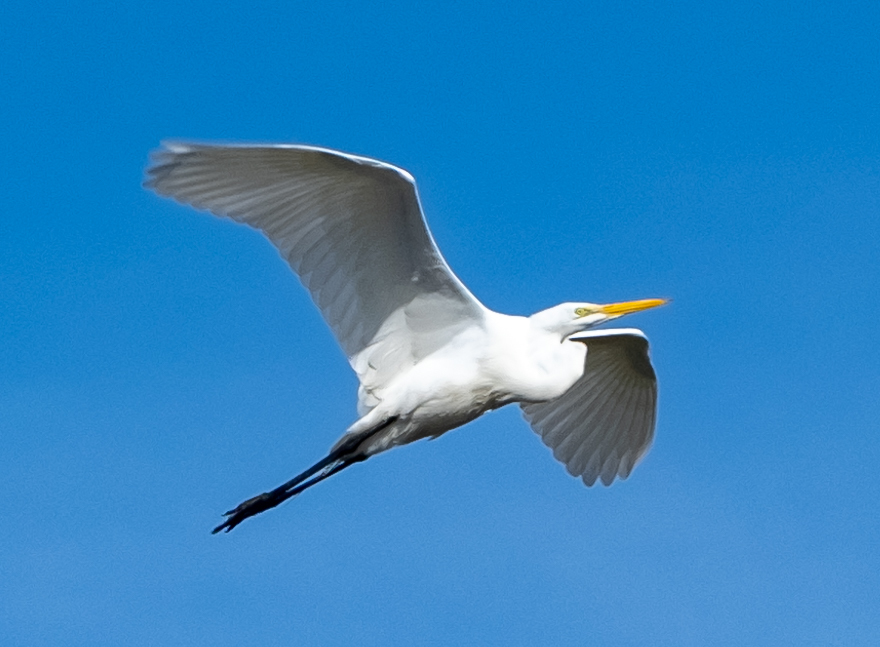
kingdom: Animalia
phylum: Chordata
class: Aves
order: Pelecaniformes
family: Ardeidae
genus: Ardea
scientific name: Ardea alba
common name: Great egret
